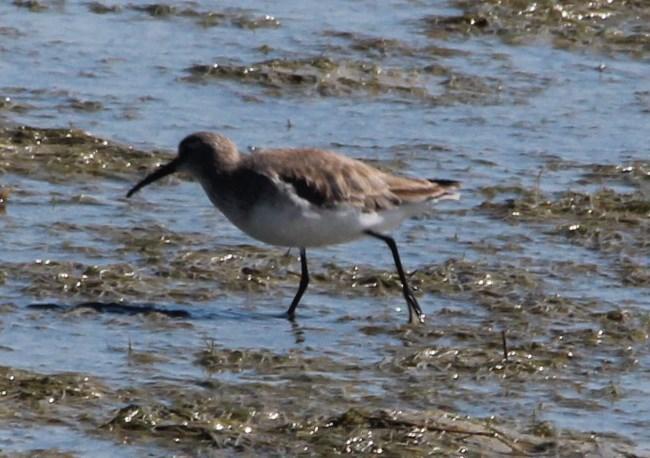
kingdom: Animalia
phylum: Chordata
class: Aves
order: Charadriiformes
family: Scolopacidae
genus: Calidris
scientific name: Calidris ferruginea
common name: Curlew sandpiper
